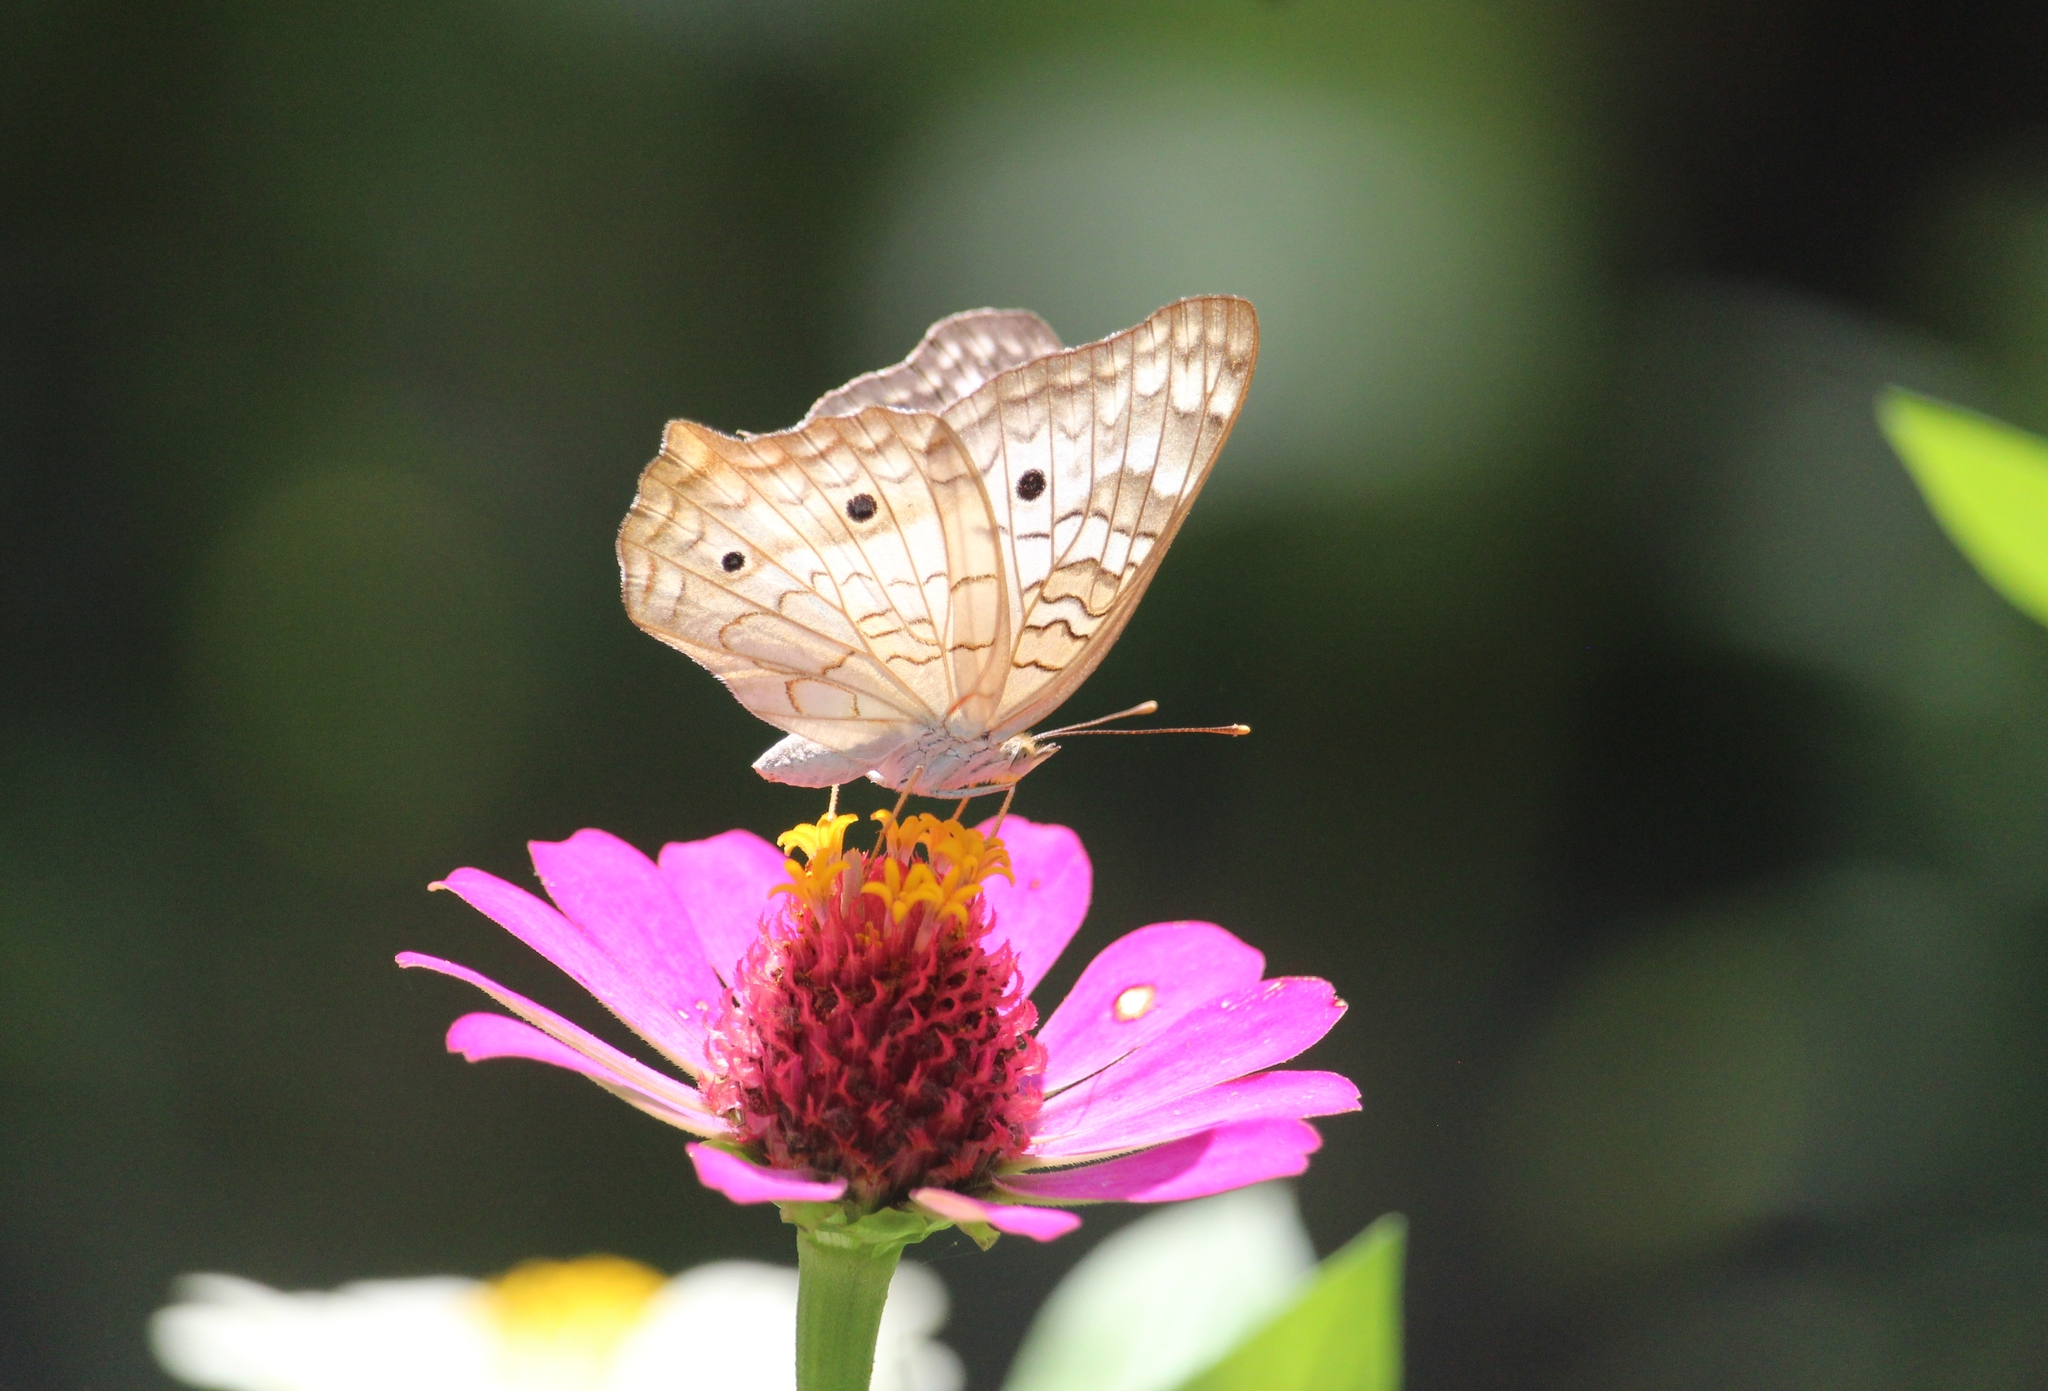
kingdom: Animalia
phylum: Arthropoda
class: Insecta
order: Lepidoptera
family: Nymphalidae
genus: Anartia
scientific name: Anartia jatrophae
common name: White peacock
